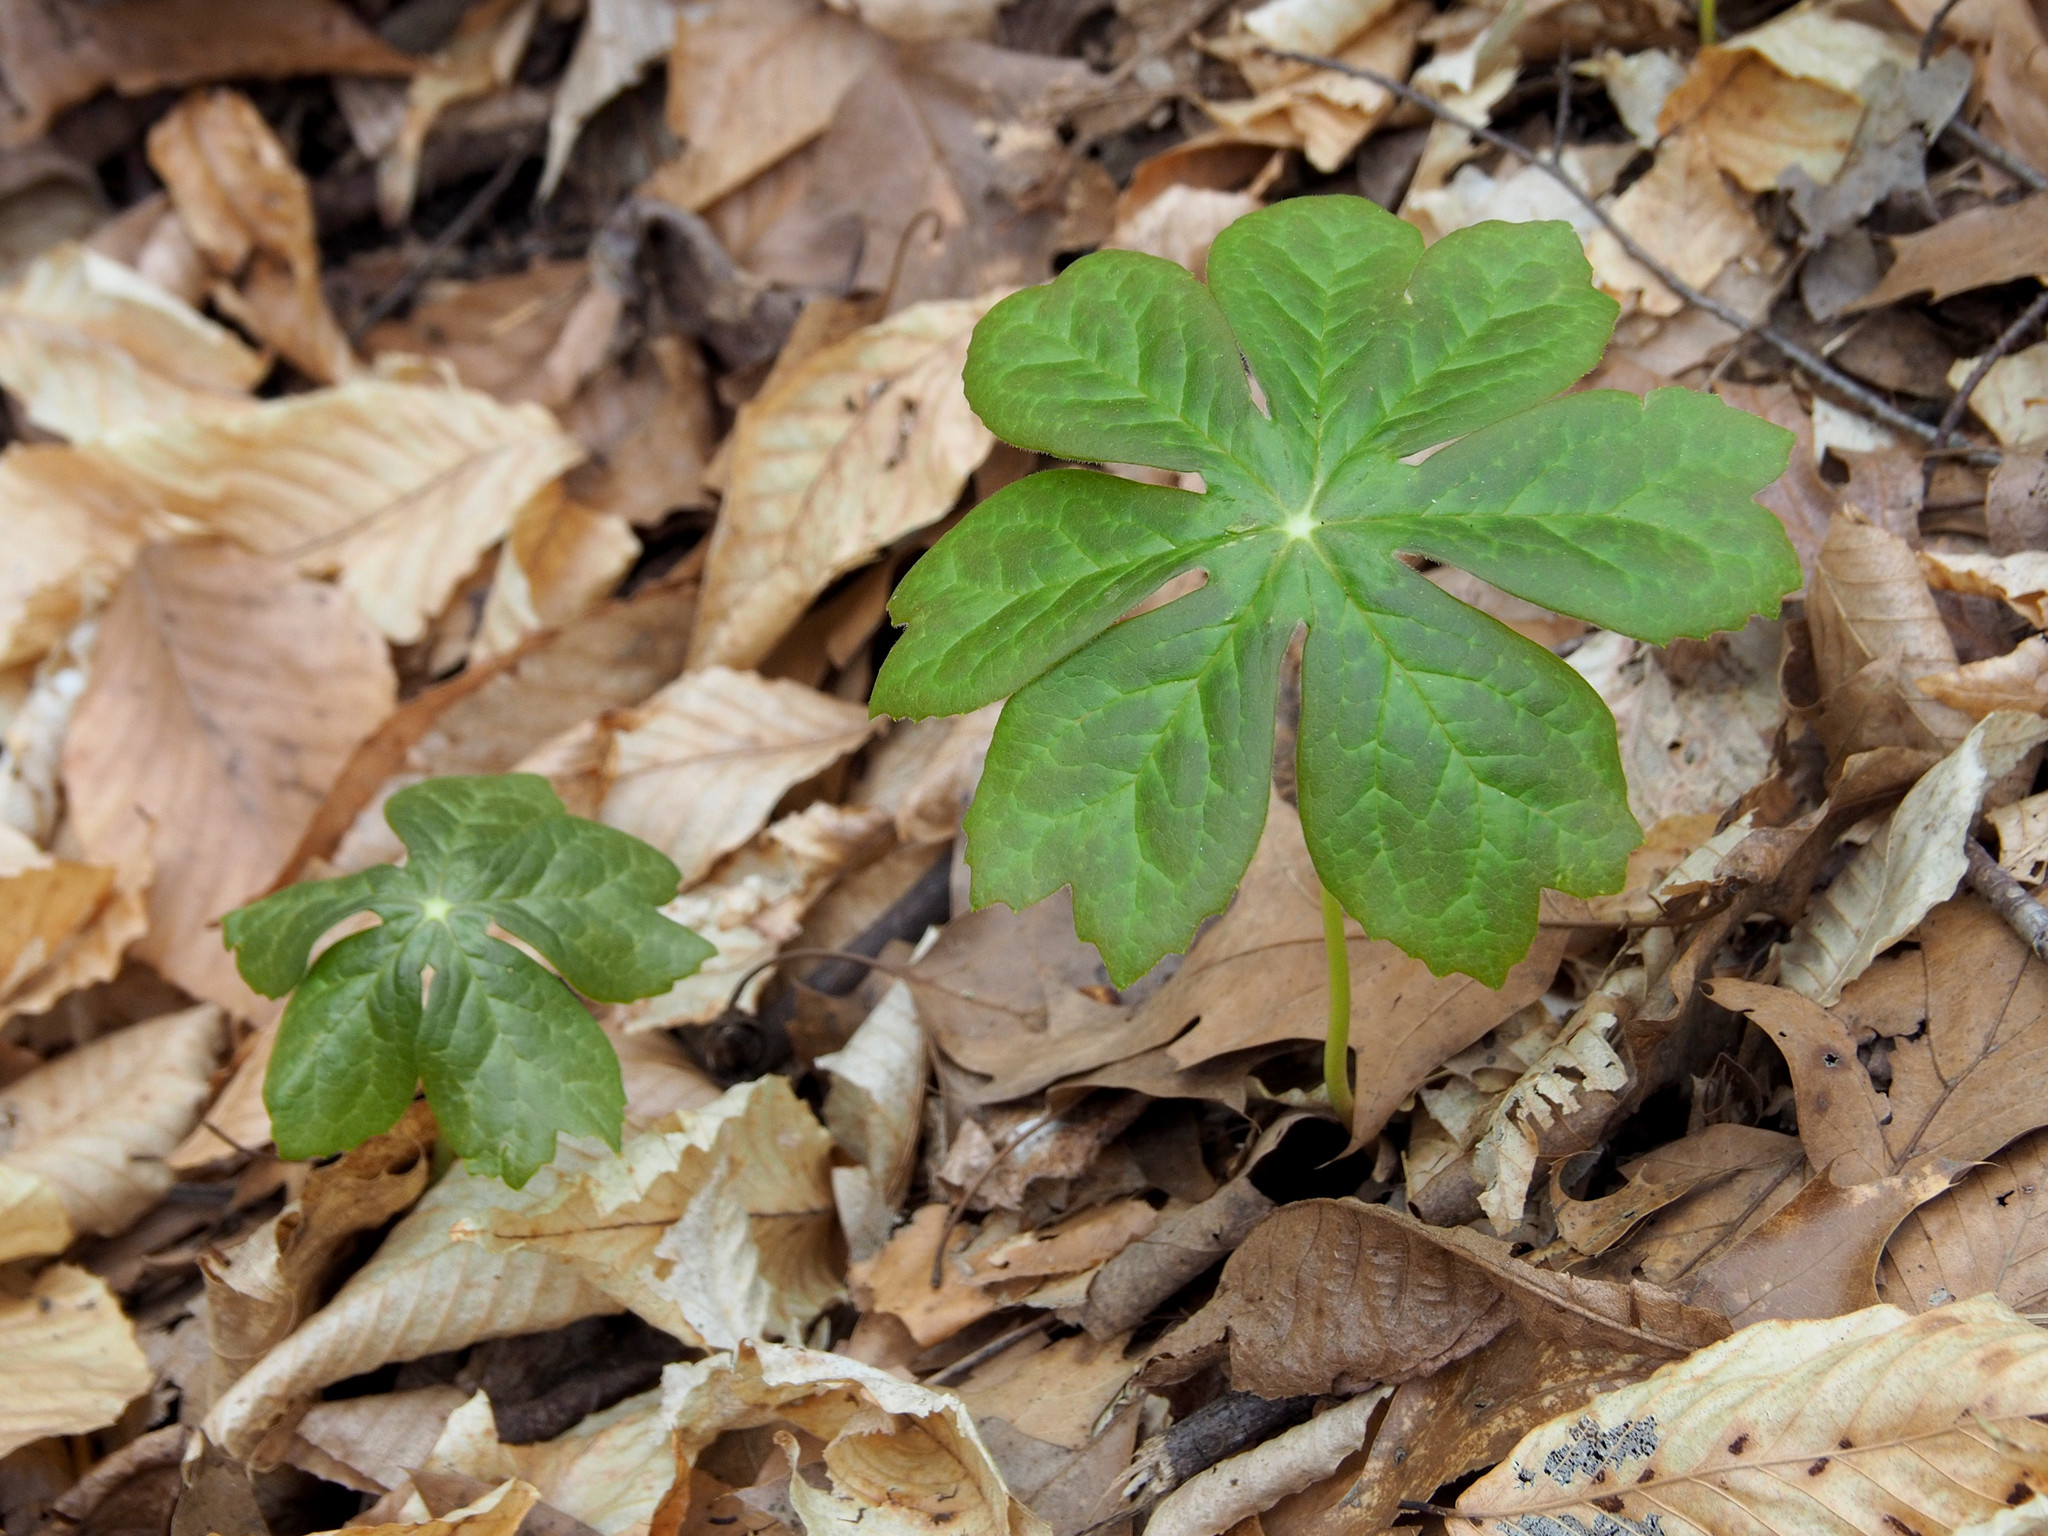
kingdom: Plantae
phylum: Tracheophyta
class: Magnoliopsida
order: Ranunculales
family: Berberidaceae
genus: Podophyllum
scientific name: Podophyllum peltatum
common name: Wild mandrake
